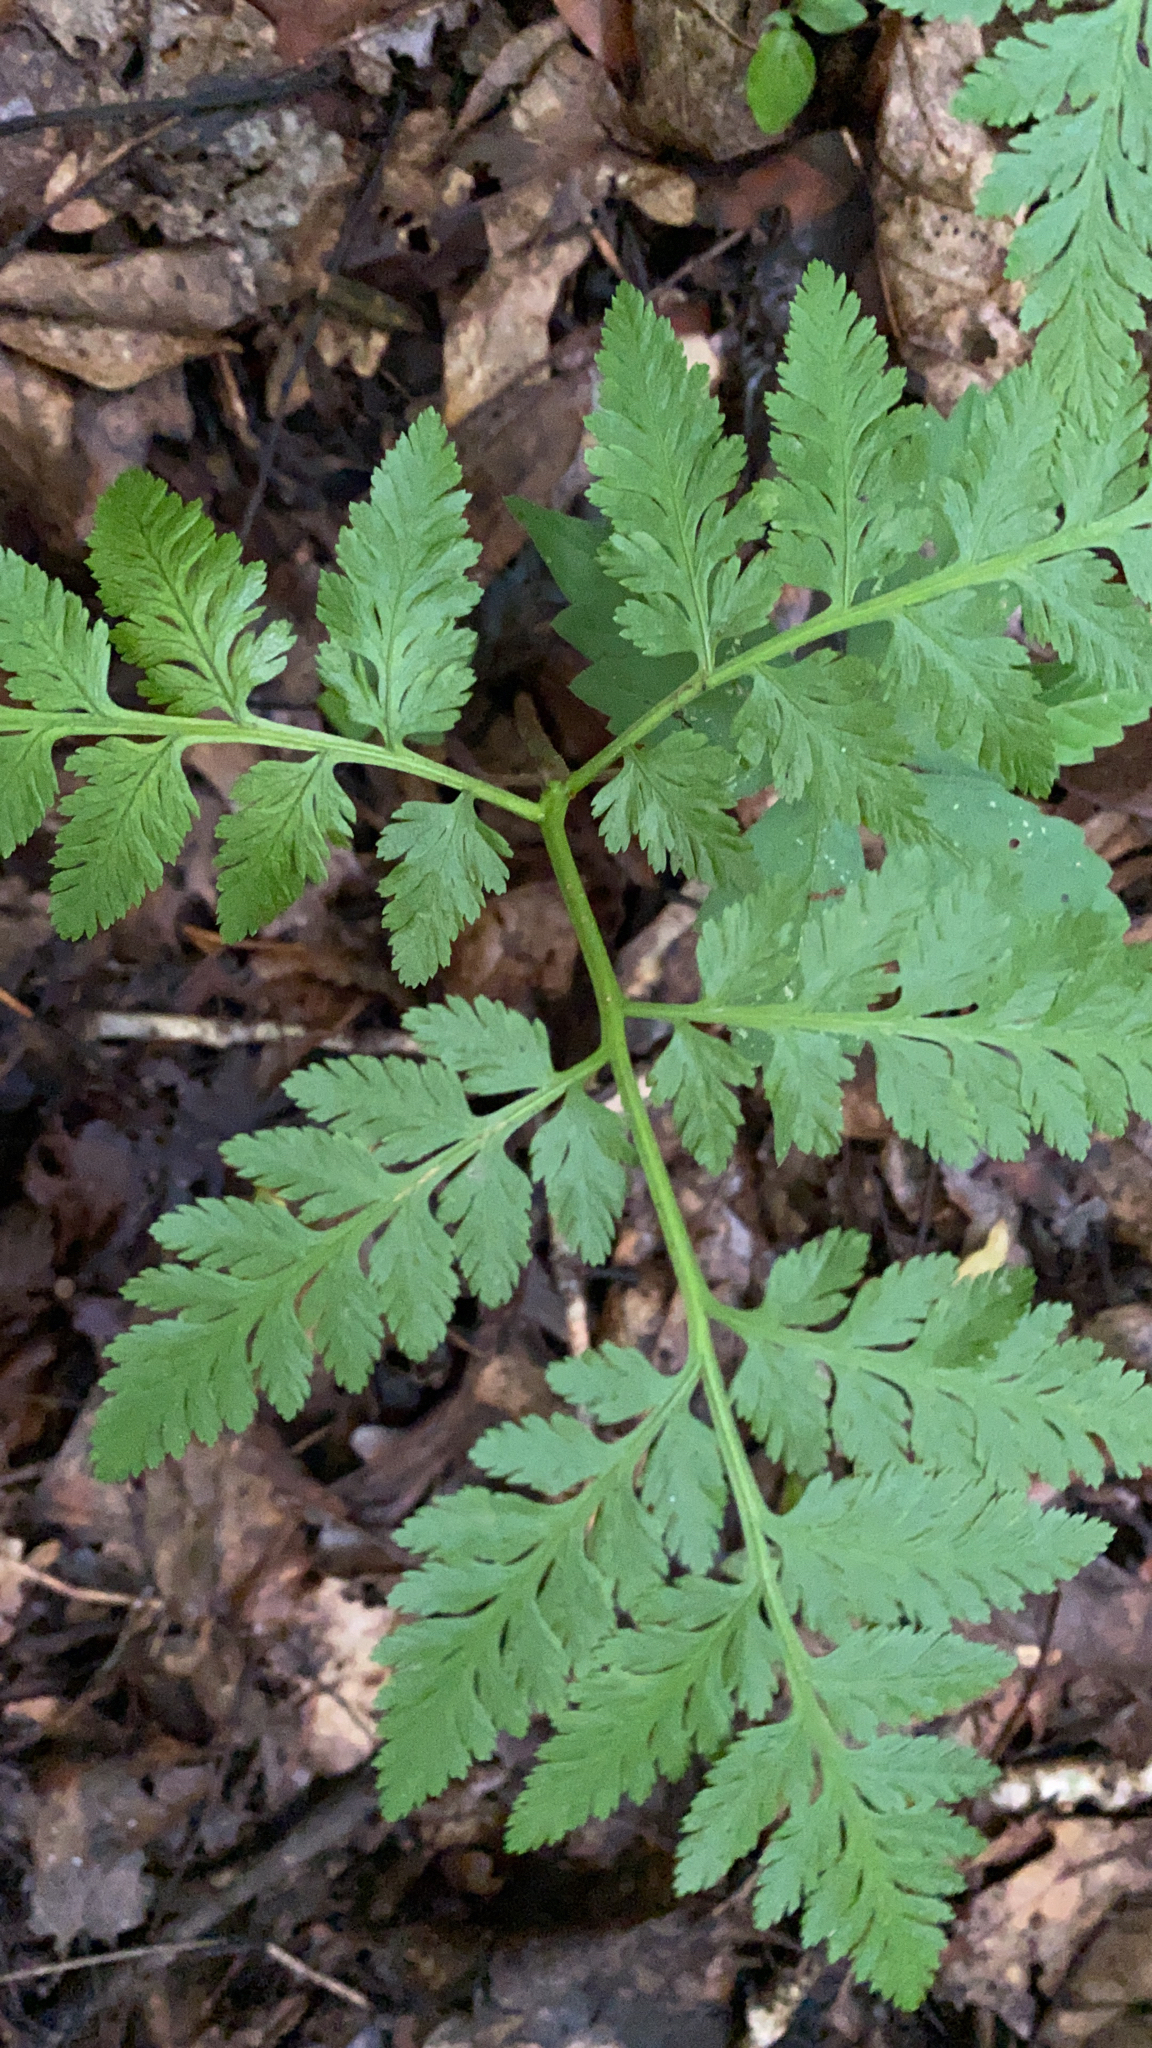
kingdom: Plantae
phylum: Tracheophyta
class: Polypodiopsida
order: Ophioglossales
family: Ophioglossaceae
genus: Botrypus
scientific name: Botrypus virginianus
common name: Common grapefern
